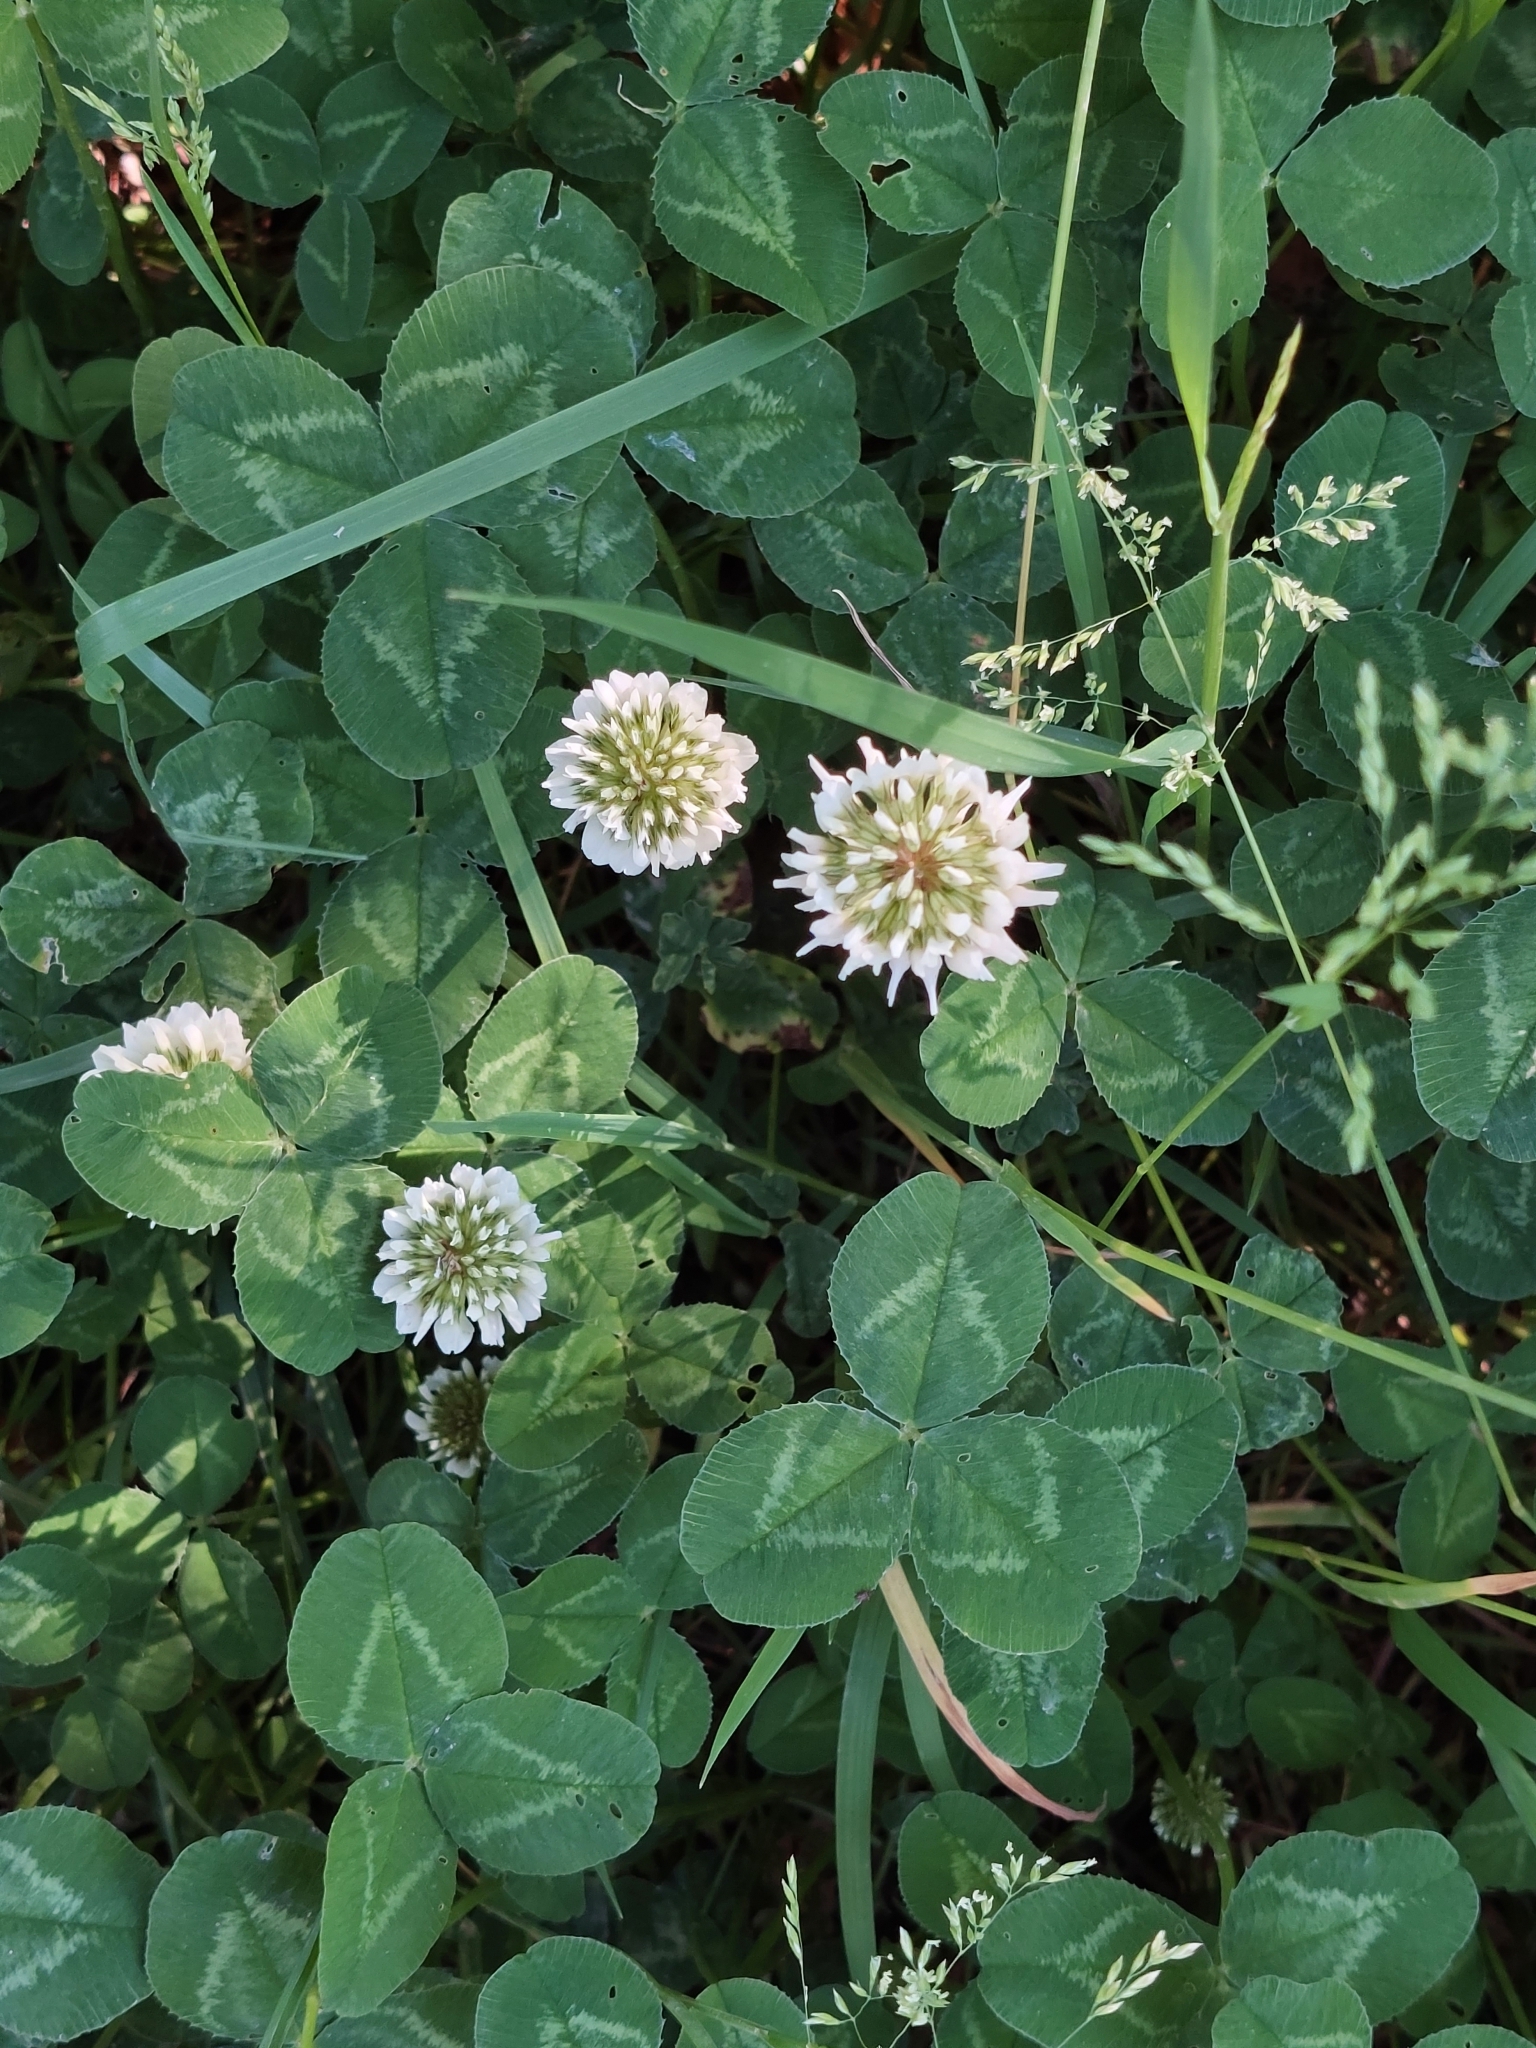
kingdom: Plantae
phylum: Tracheophyta
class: Magnoliopsida
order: Fabales
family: Fabaceae
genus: Trifolium
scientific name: Trifolium repens
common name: White clover
